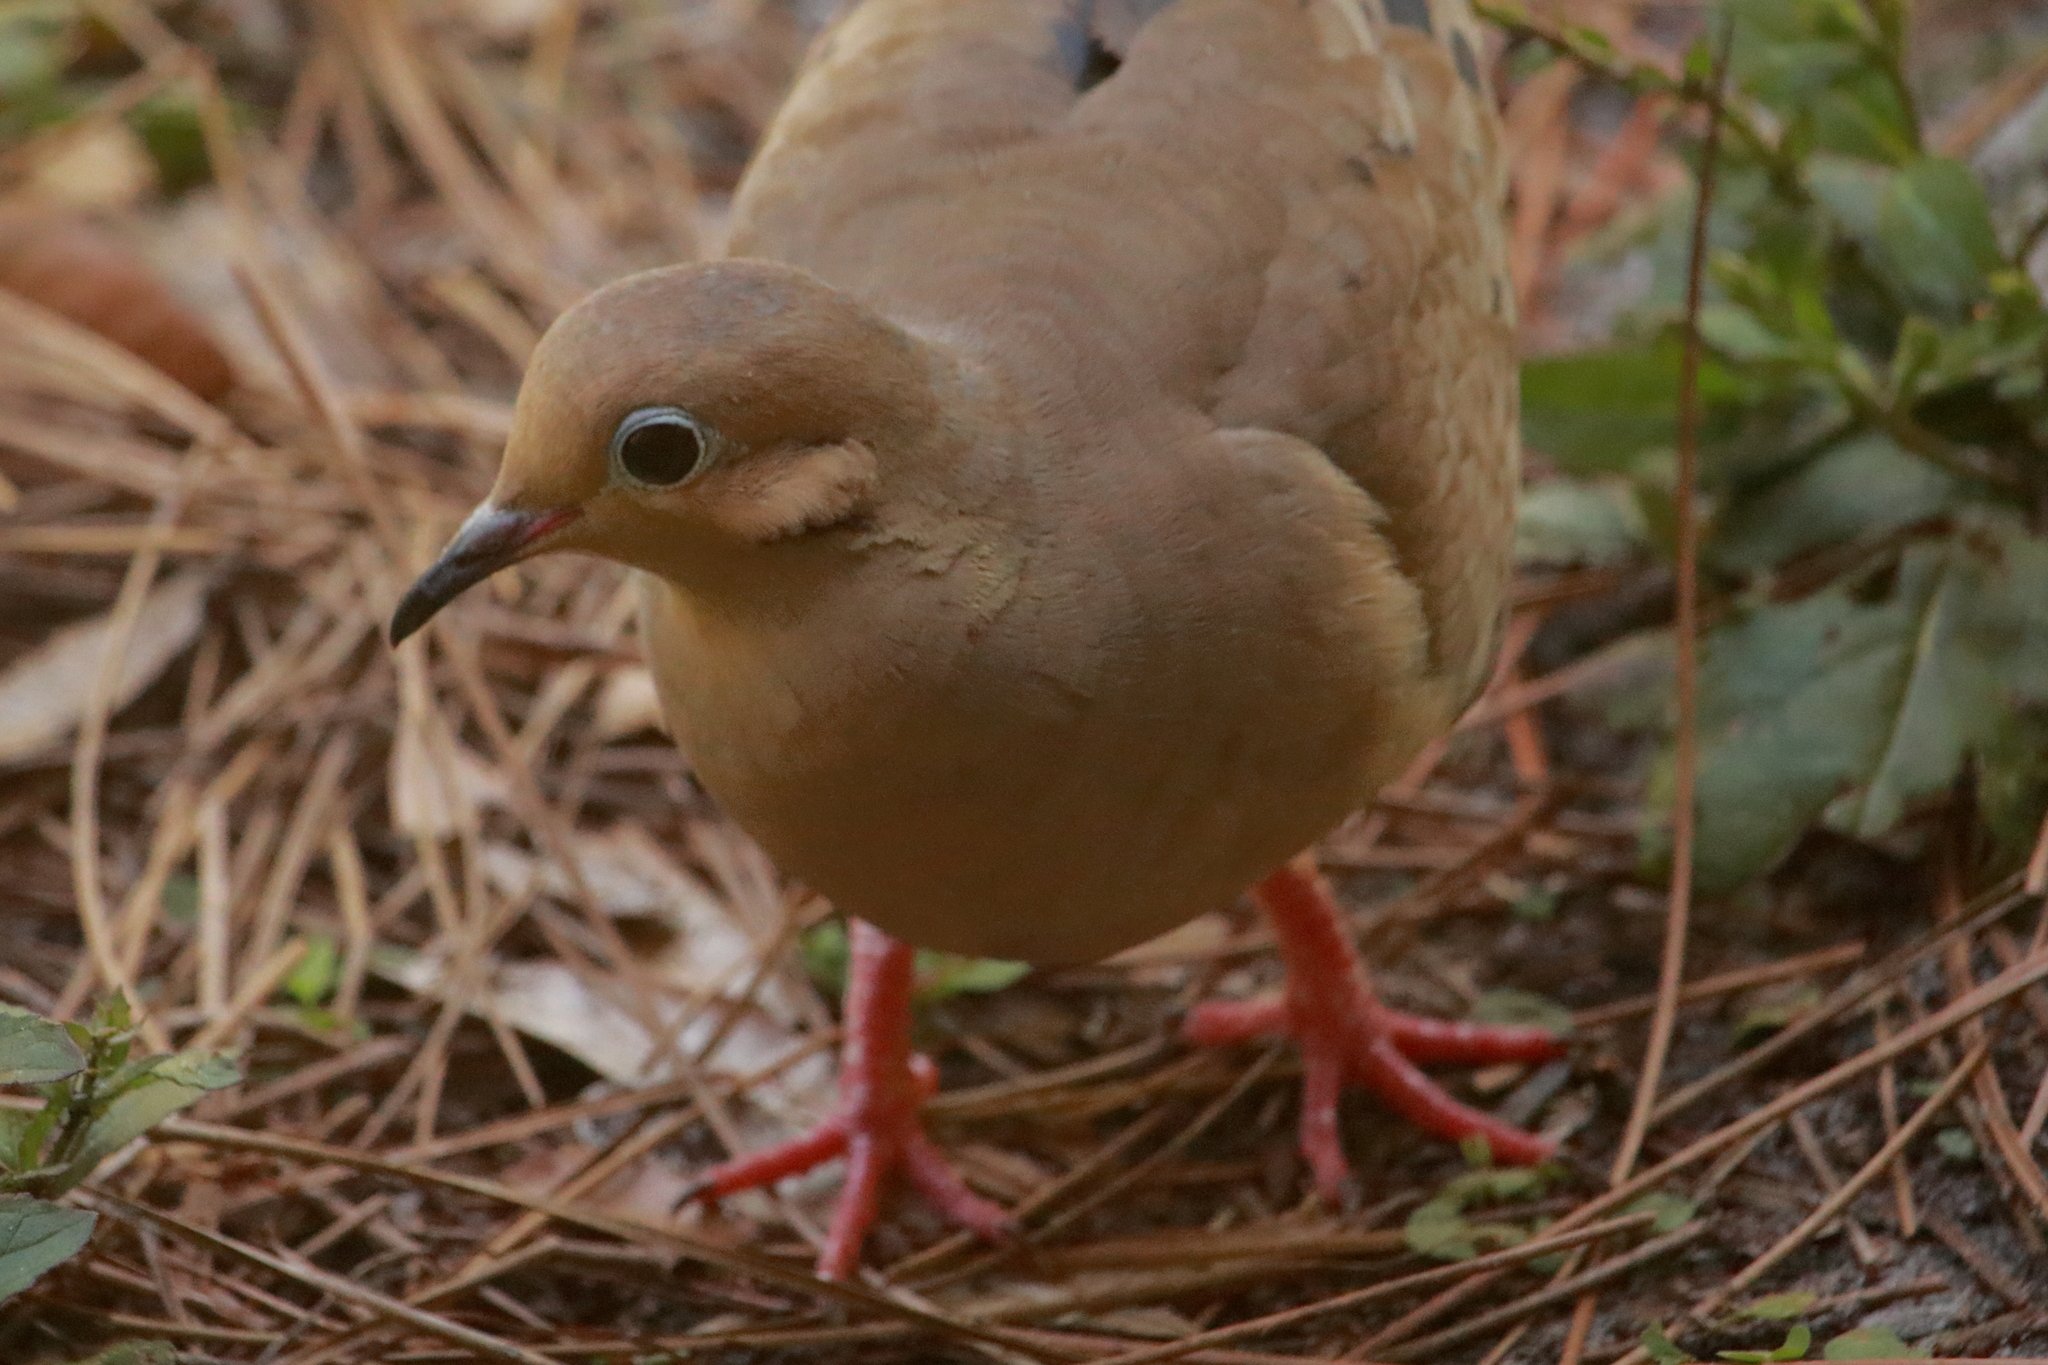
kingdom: Animalia
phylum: Chordata
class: Aves
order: Columbiformes
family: Columbidae
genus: Zenaida
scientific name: Zenaida macroura
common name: Mourning dove
